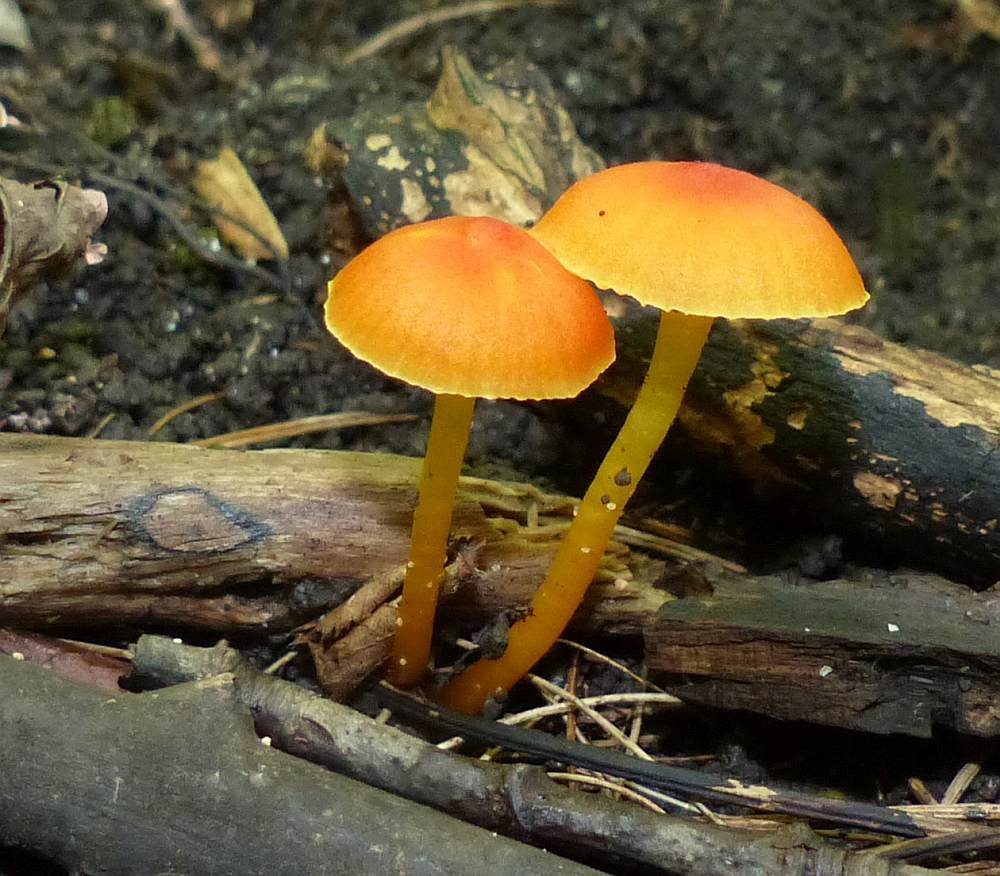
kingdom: Fungi
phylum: Basidiomycota
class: Agaricomycetes
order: Agaricales
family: Mycenaceae
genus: Mycena
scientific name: Mycena leaiana
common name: Orange mycena
